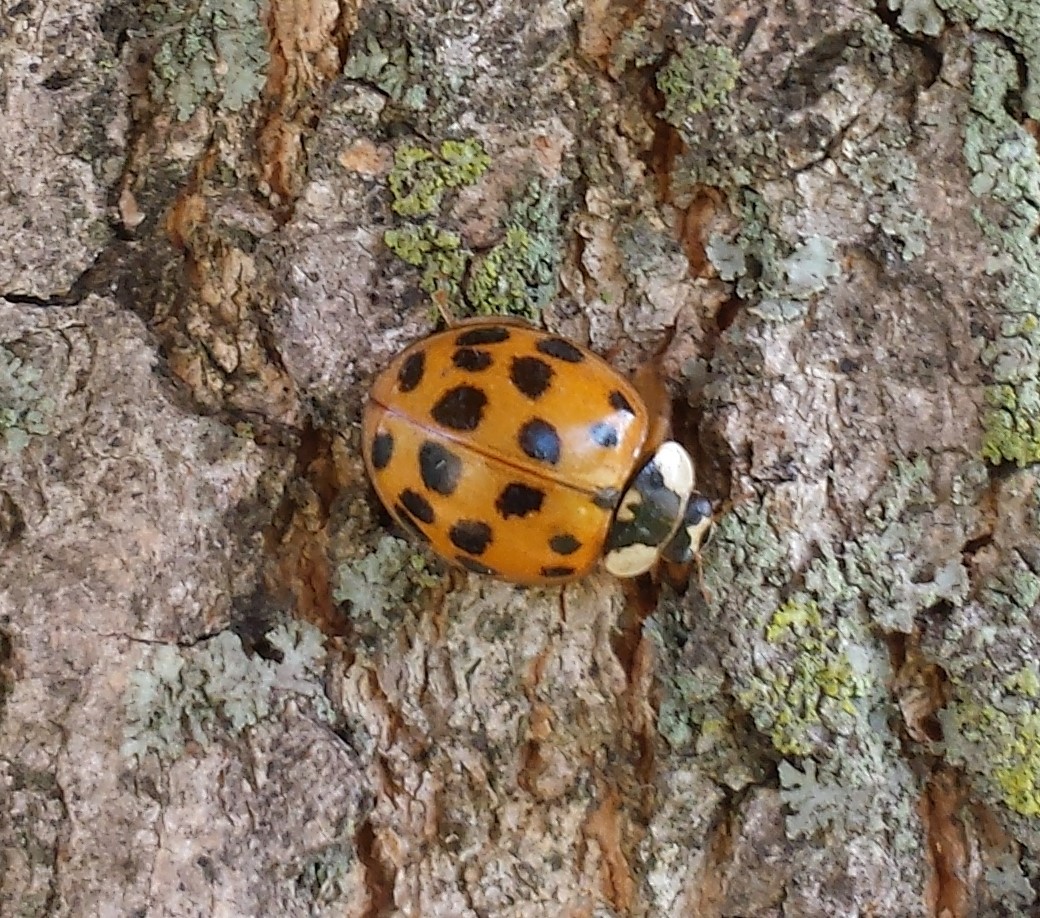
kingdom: Animalia
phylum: Arthropoda
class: Insecta
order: Coleoptera
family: Coccinellidae
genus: Harmonia
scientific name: Harmonia axyridis
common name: Harlequin ladybird
